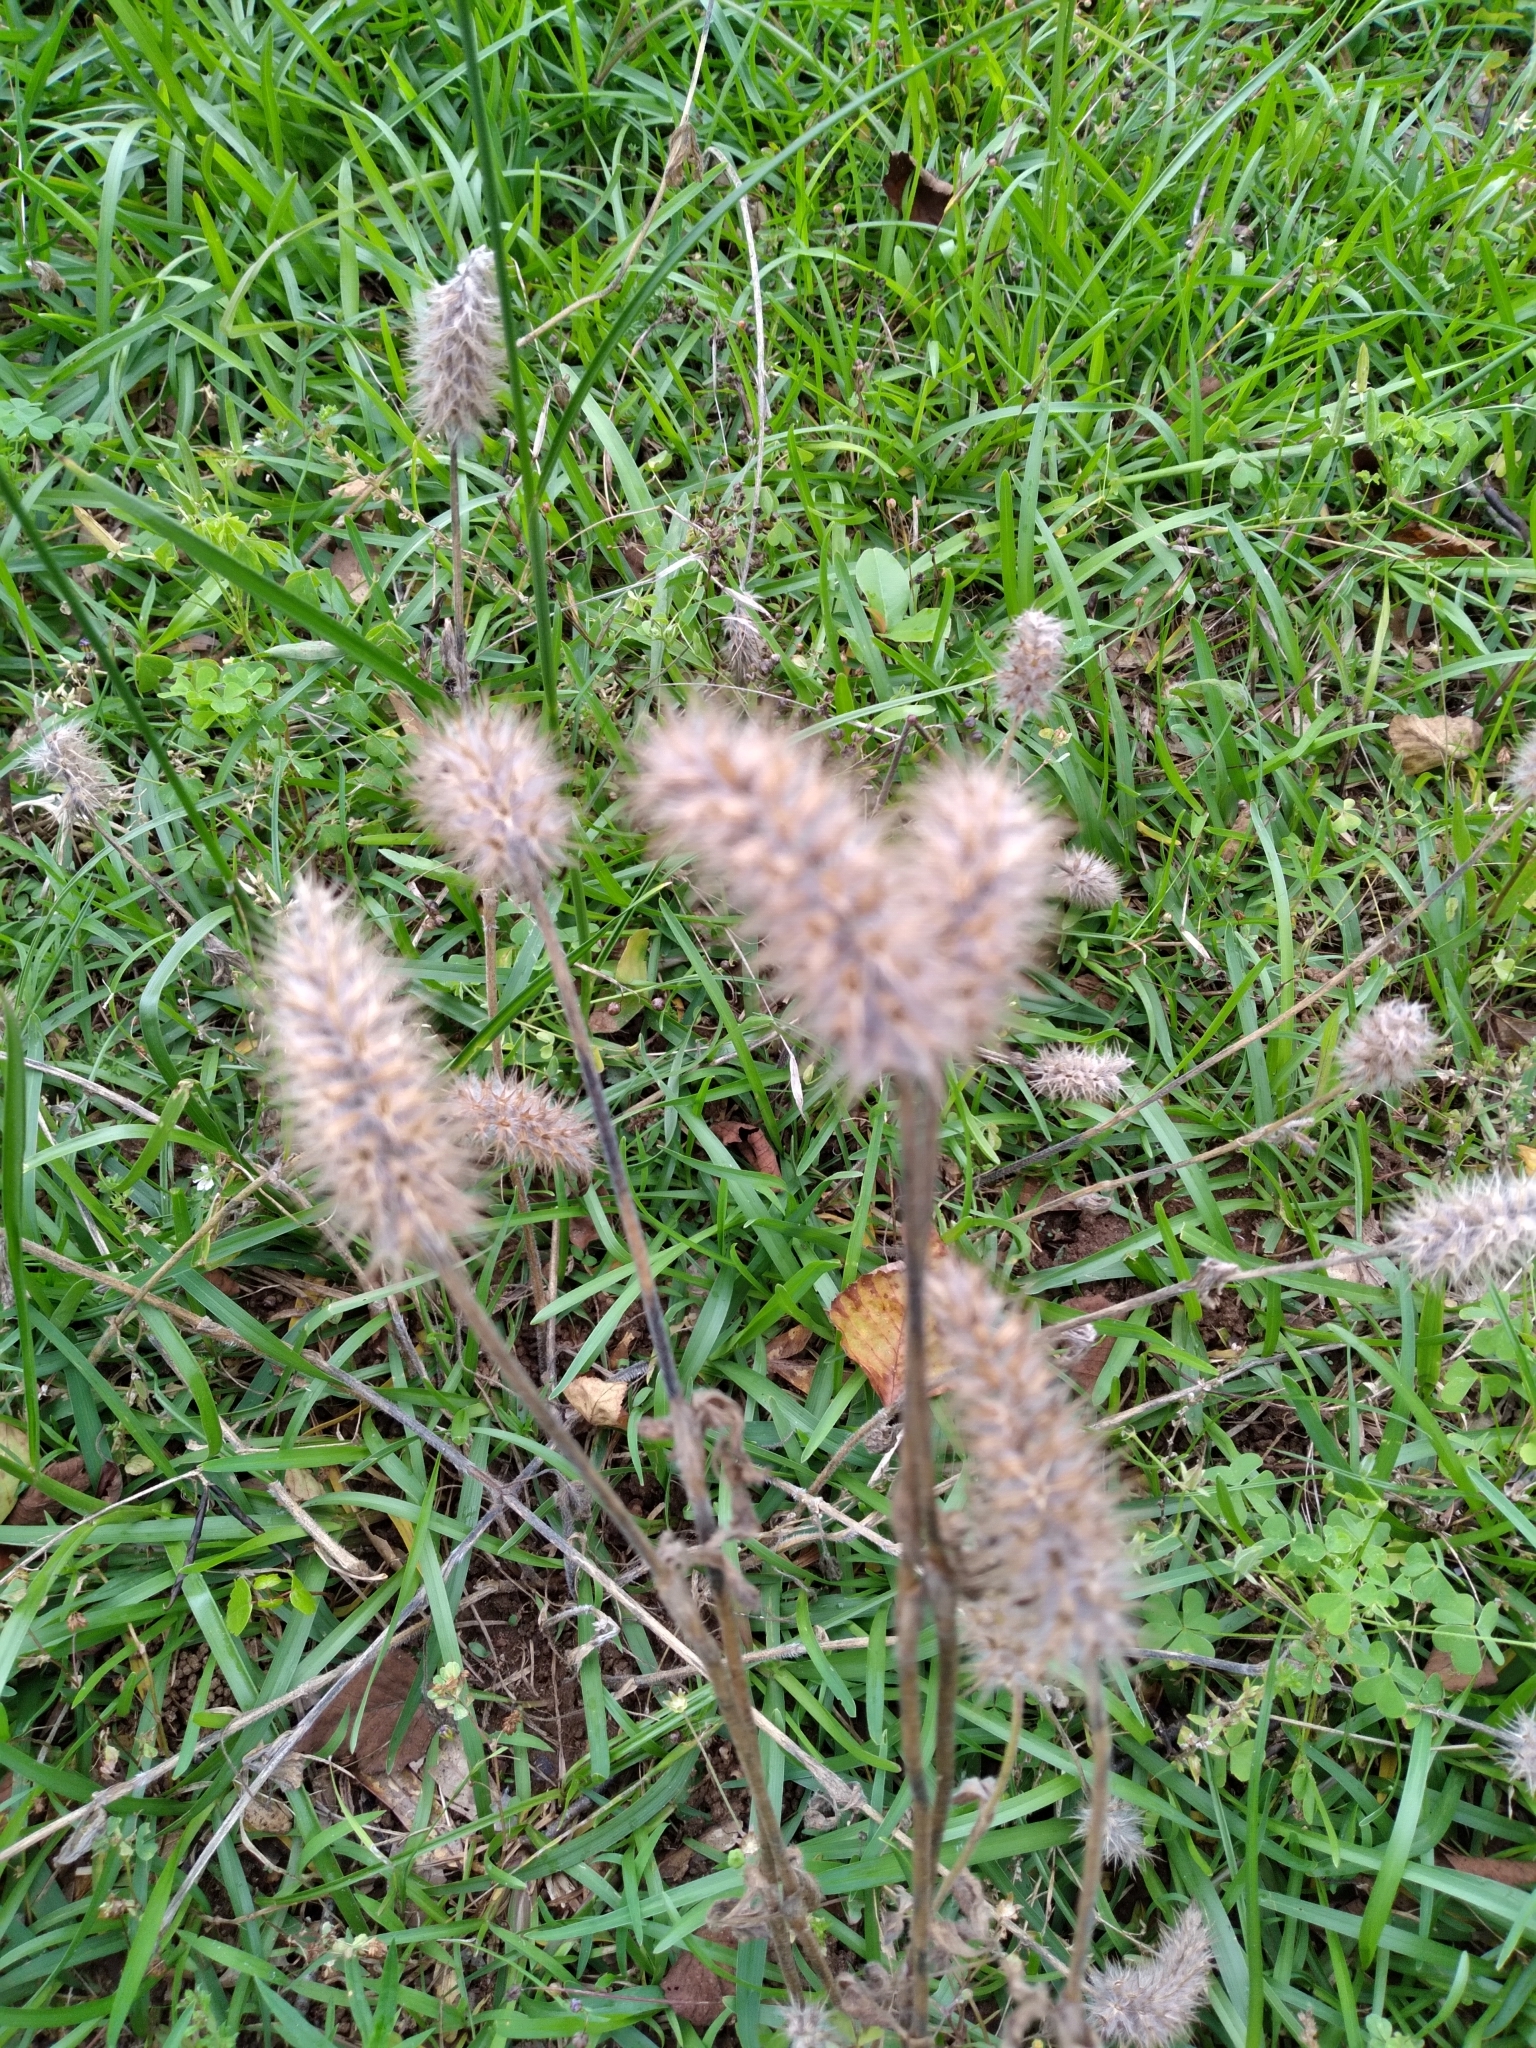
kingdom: Plantae
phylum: Tracheophyta
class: Magnoliopsida
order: Fabales
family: Fabaceae
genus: Trifolium
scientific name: Trifolium incarnatum
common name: Crimson clover
